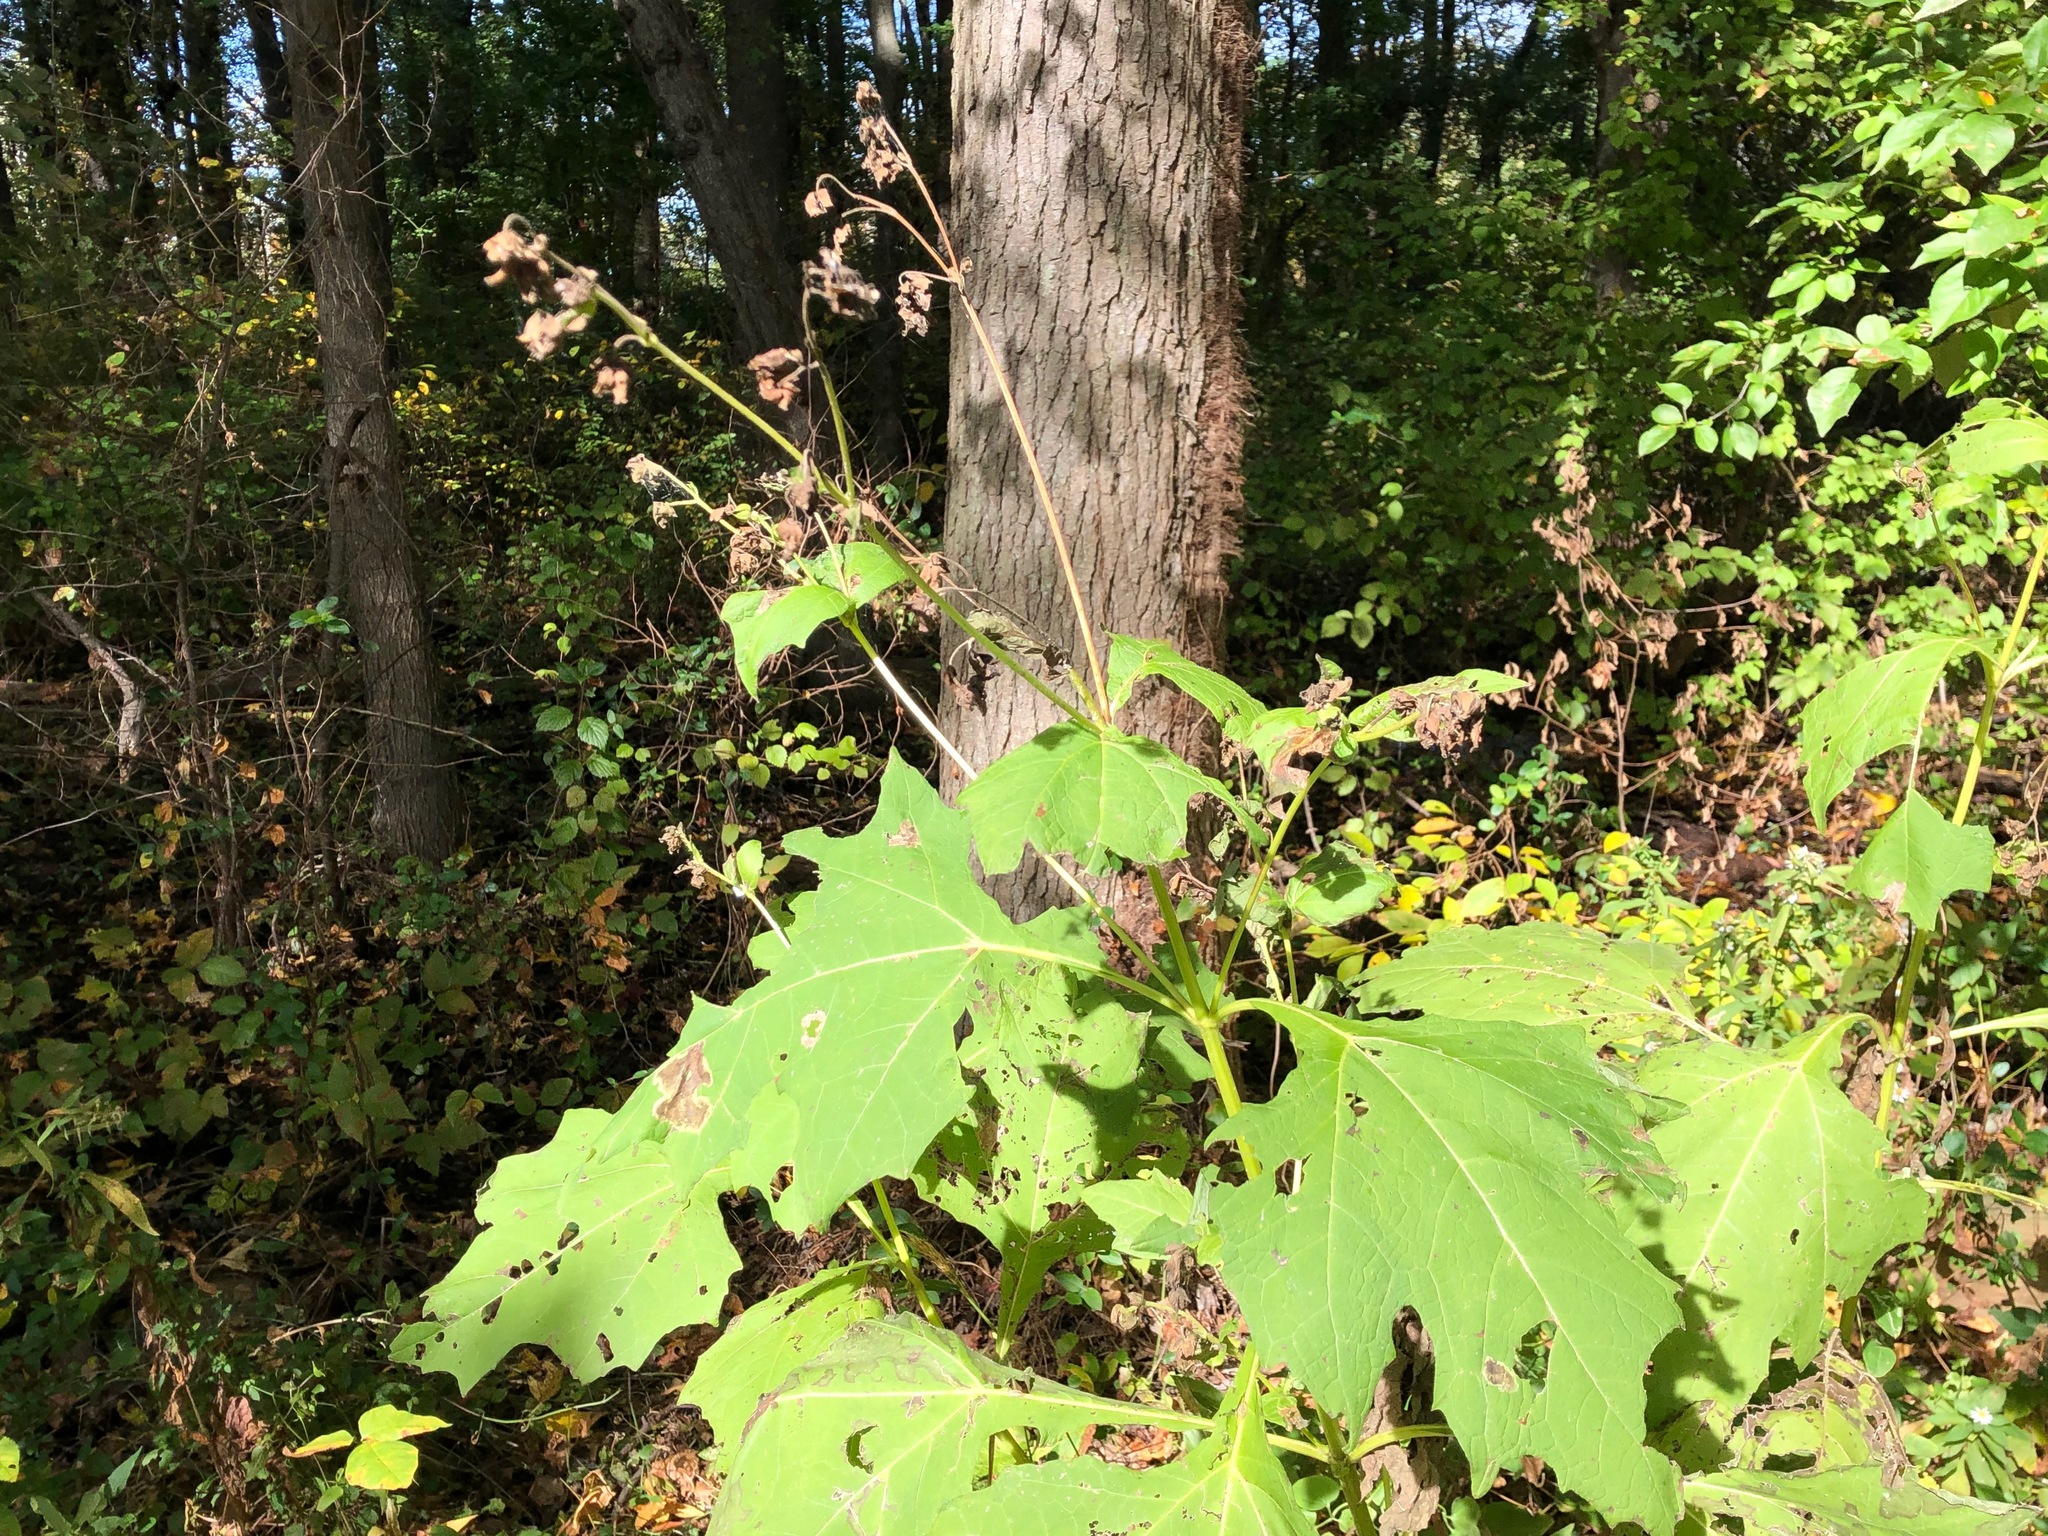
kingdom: Plantae
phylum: Tracheophyta
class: Magnoliopsida
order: Asterales
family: Asteraceae
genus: Smallanthus
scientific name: Smallanthus uvedalia
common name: Bear's-foot
